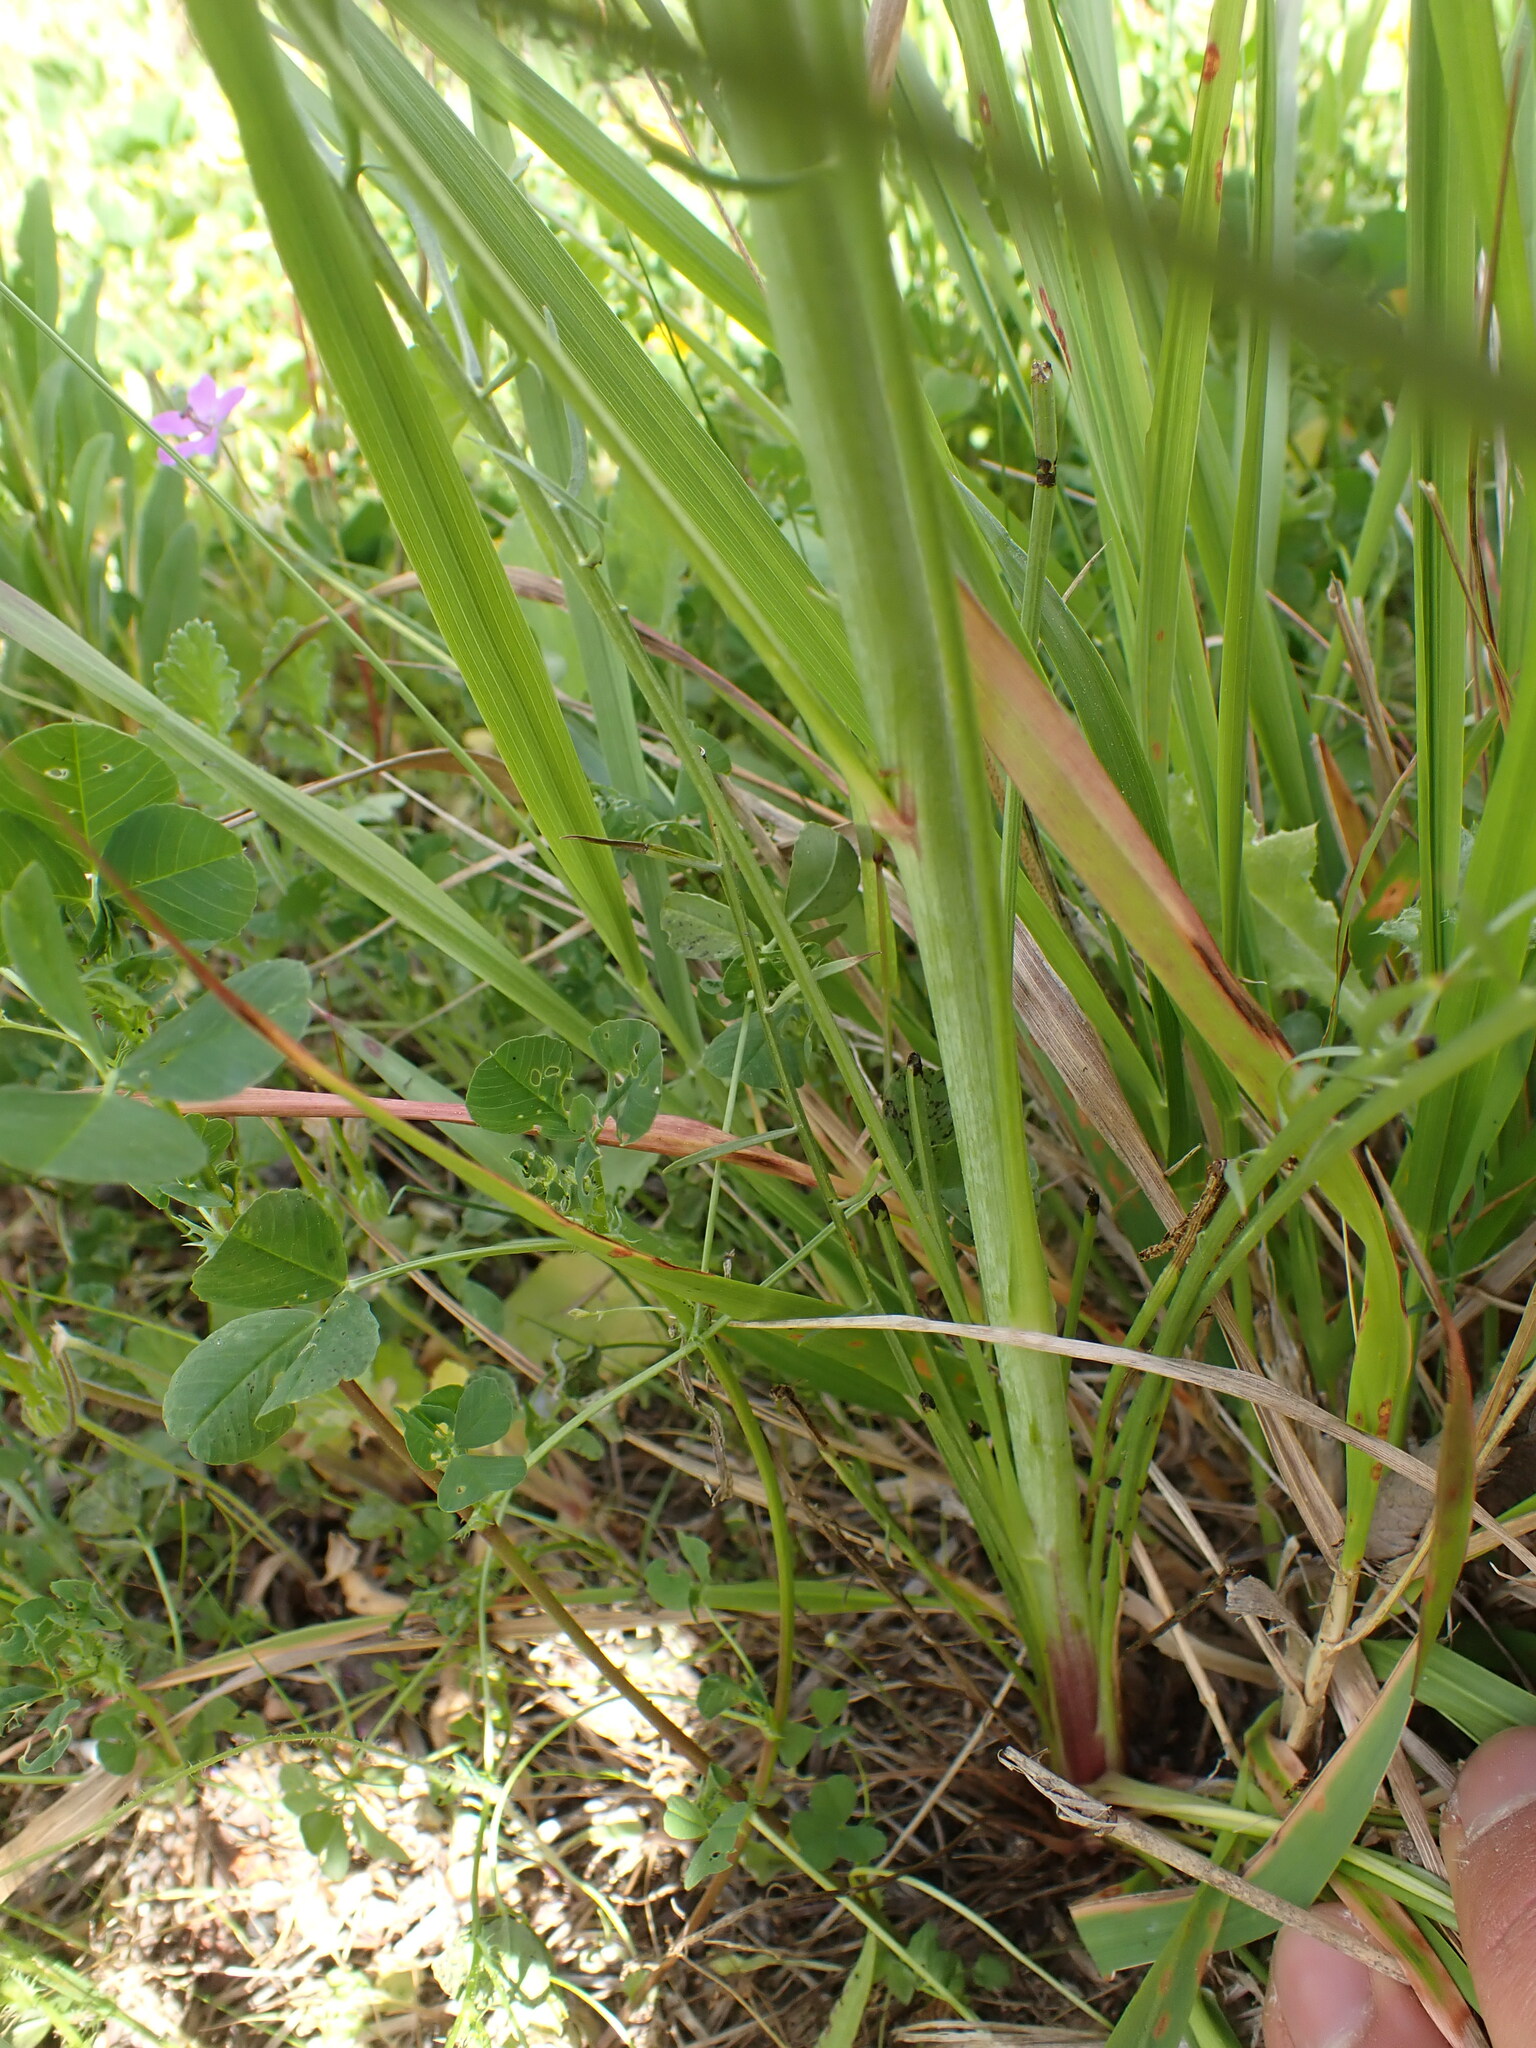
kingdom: Plantae
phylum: Tracheophyta
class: Magnoliopsida
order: Asterales
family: Asteraceae
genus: Scorzonera
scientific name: Scorzonera laciniata
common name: Cutleaf vipergrass
